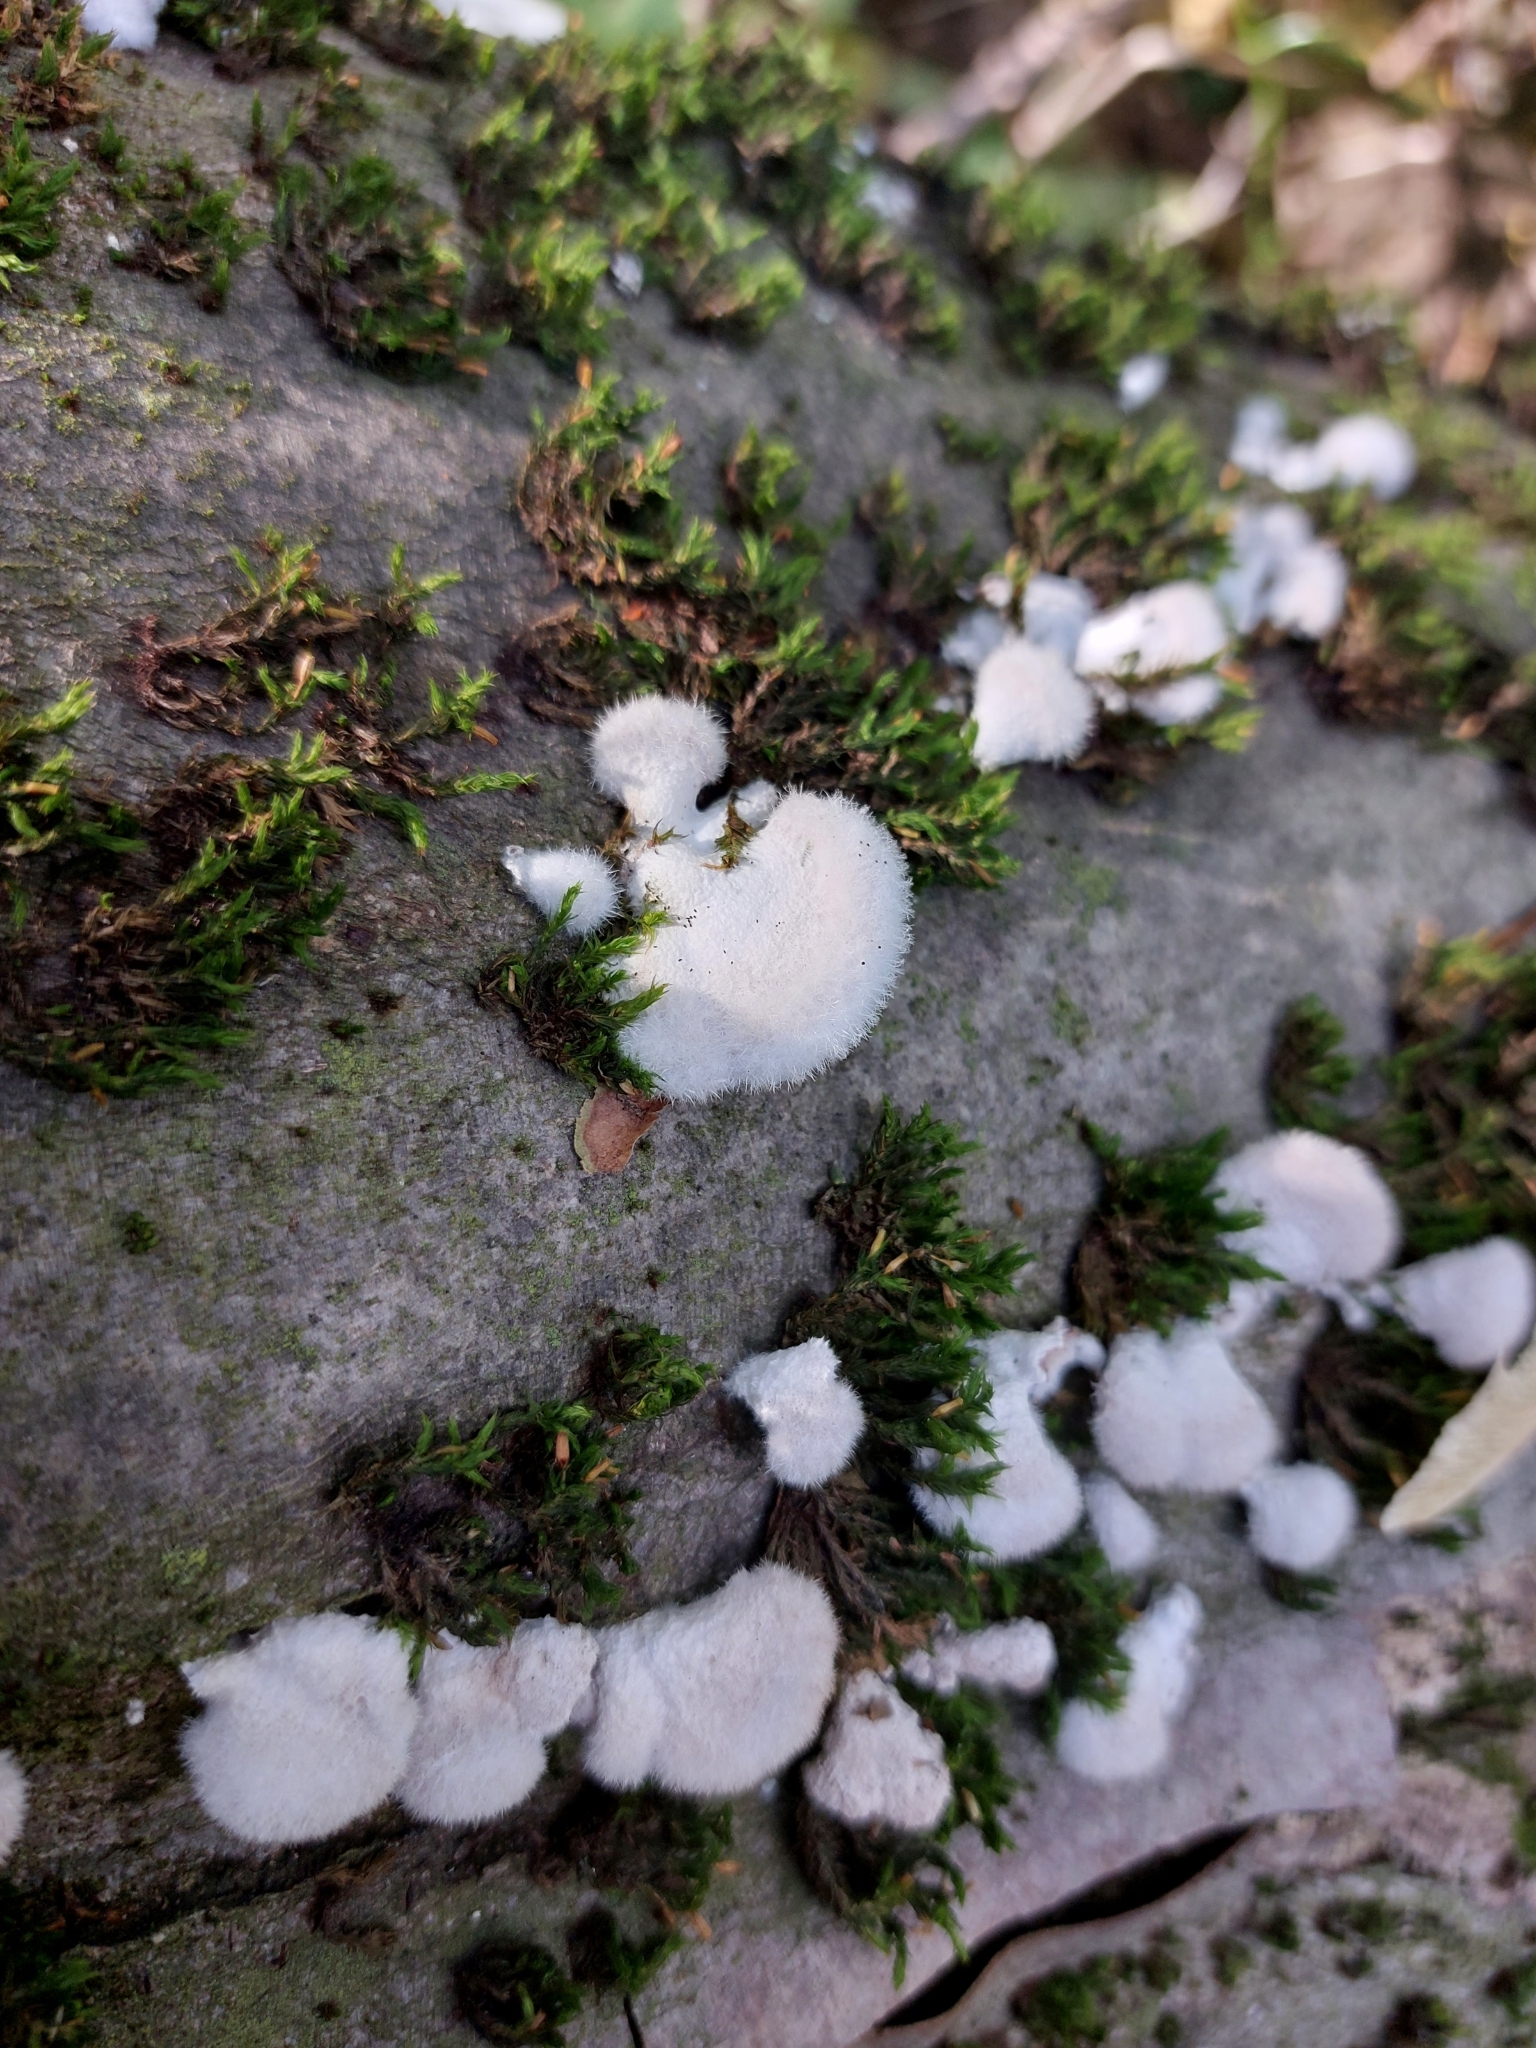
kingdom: Fungi
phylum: Basidiomycota
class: Agaricomycetes
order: Agaricales
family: Schizophyllaceae
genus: Schizophyllum
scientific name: Schizophyllum commune
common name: Common porecrust
